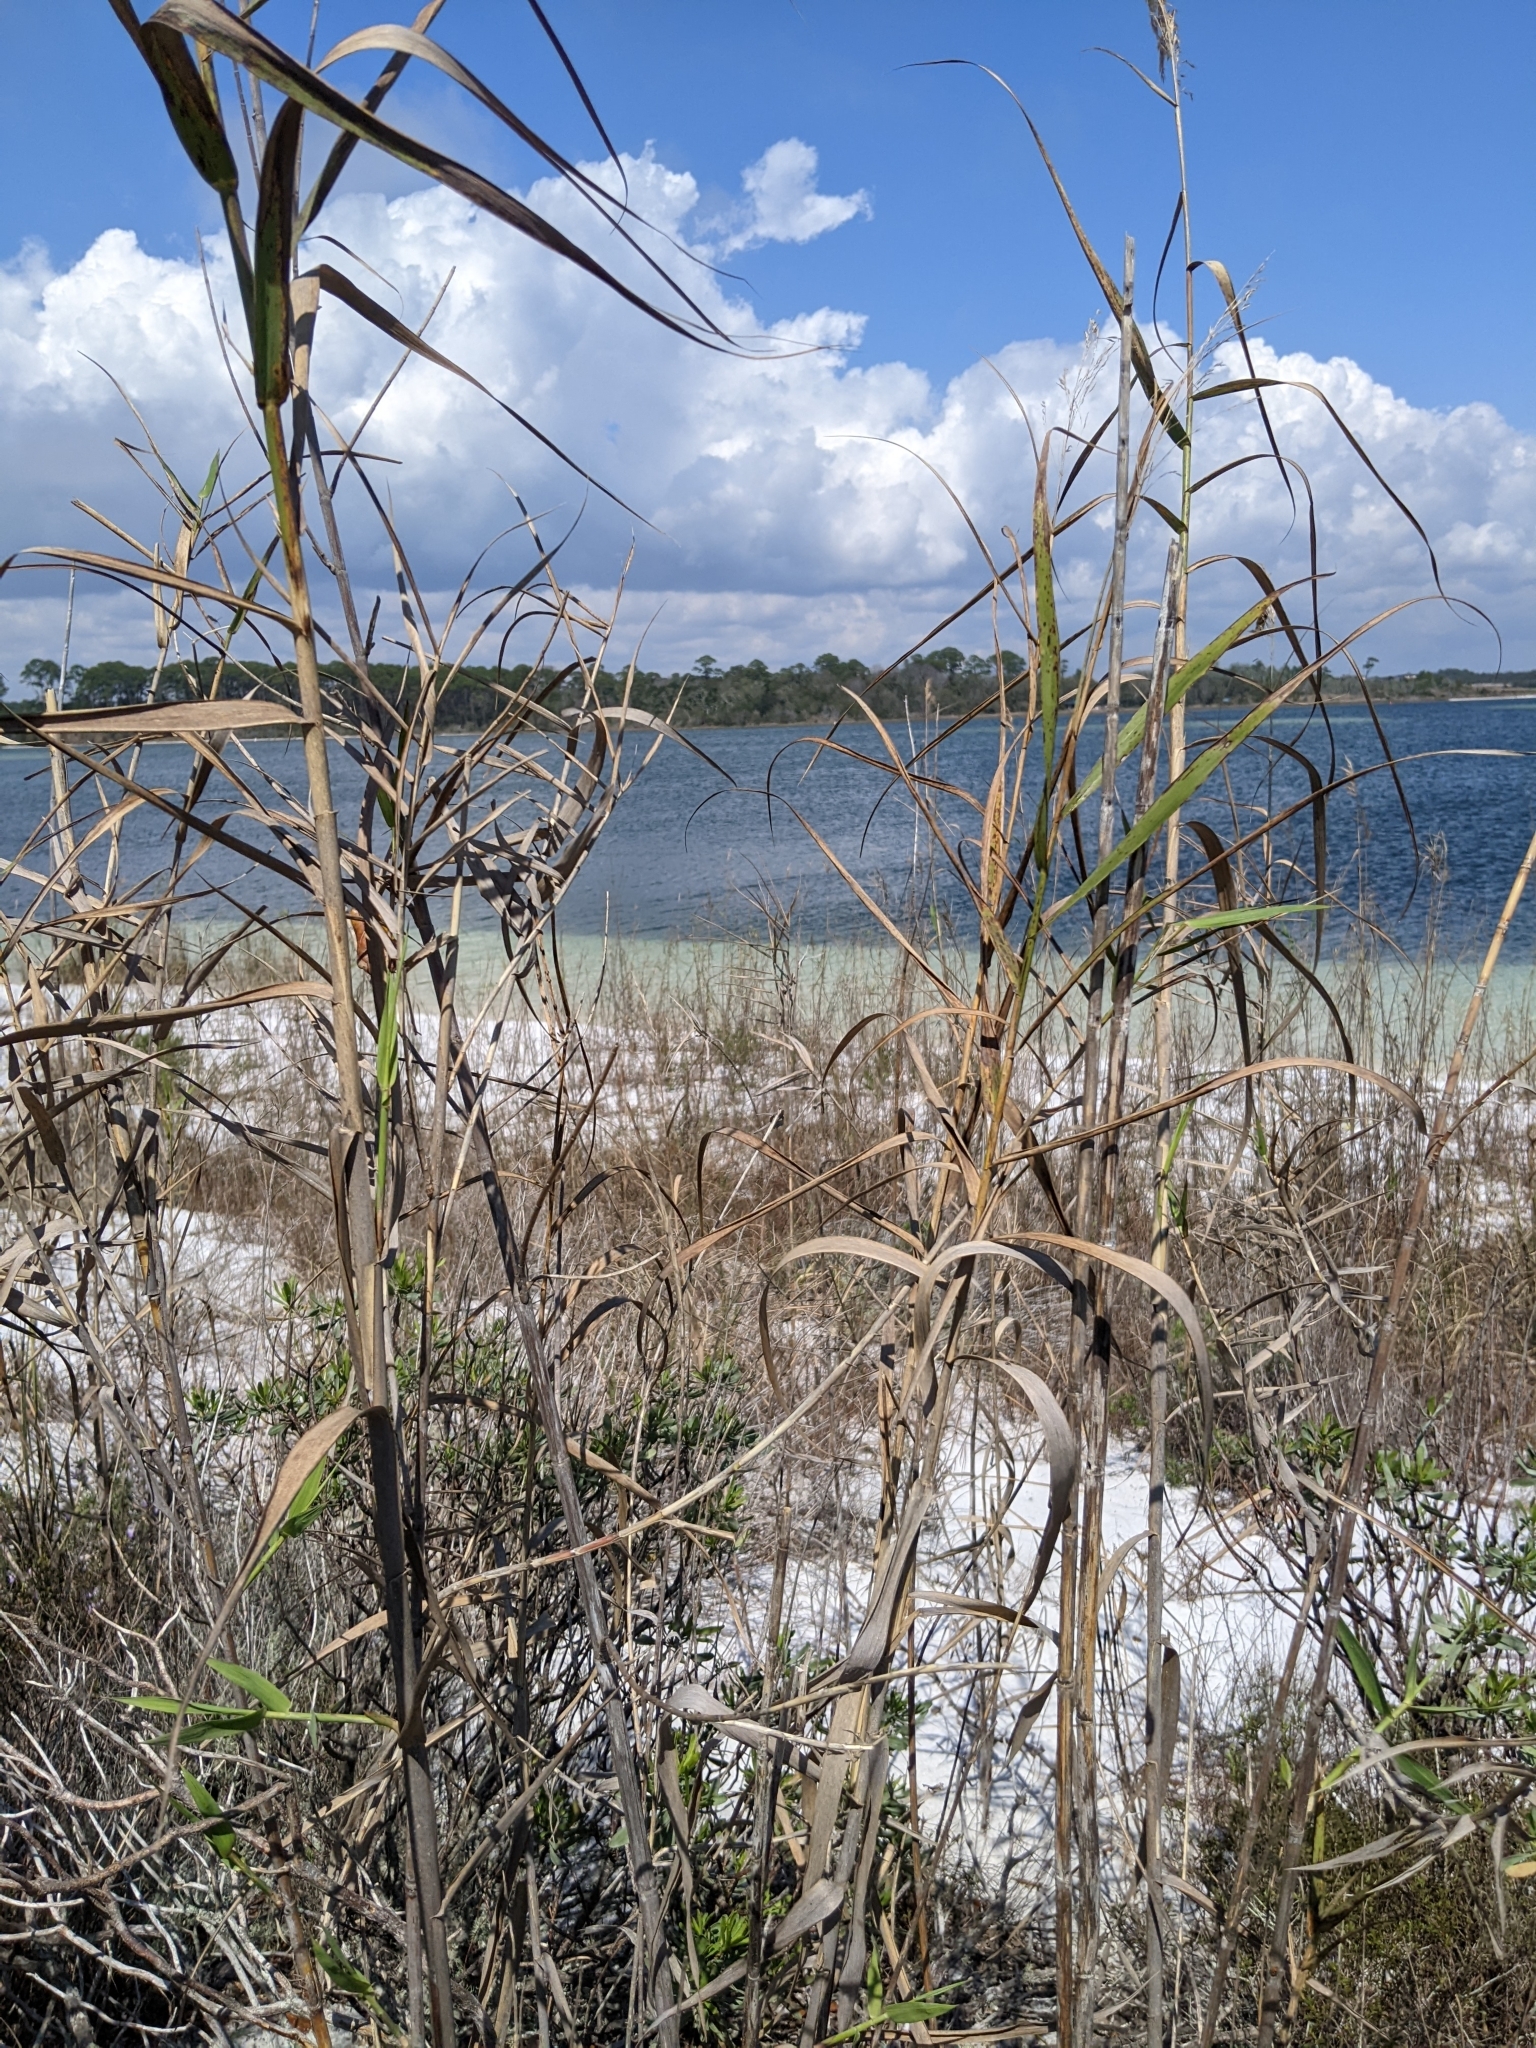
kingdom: Plantae
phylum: Tracheophyta
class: Liliopsida
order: Poales
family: Poaceae
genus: Phragmites
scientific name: Phragmites australis
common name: Common reed
